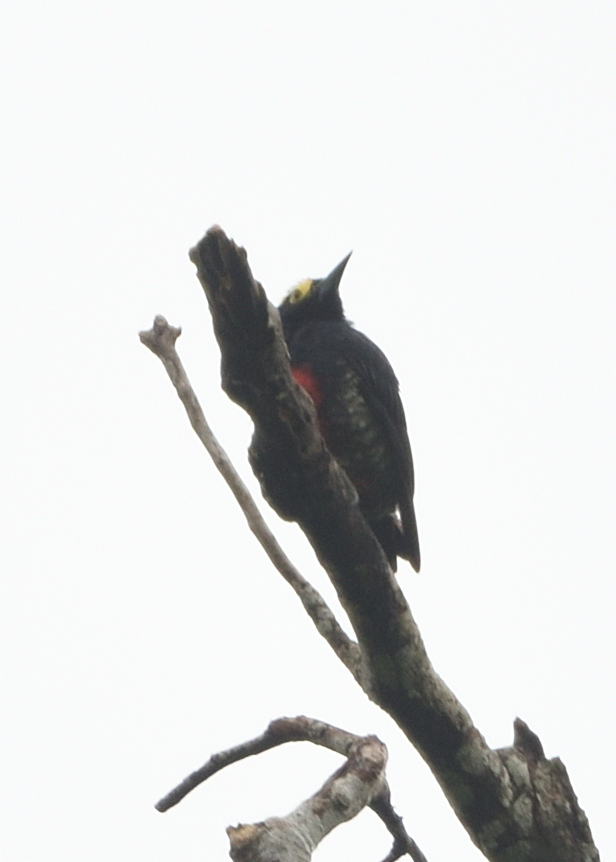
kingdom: Animalia
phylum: Chordata
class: Aves
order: Piciformes
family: Picidae
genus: Melanerpes
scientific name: Melanerpes cruentatus
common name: Yellow-tufted woodpecker
